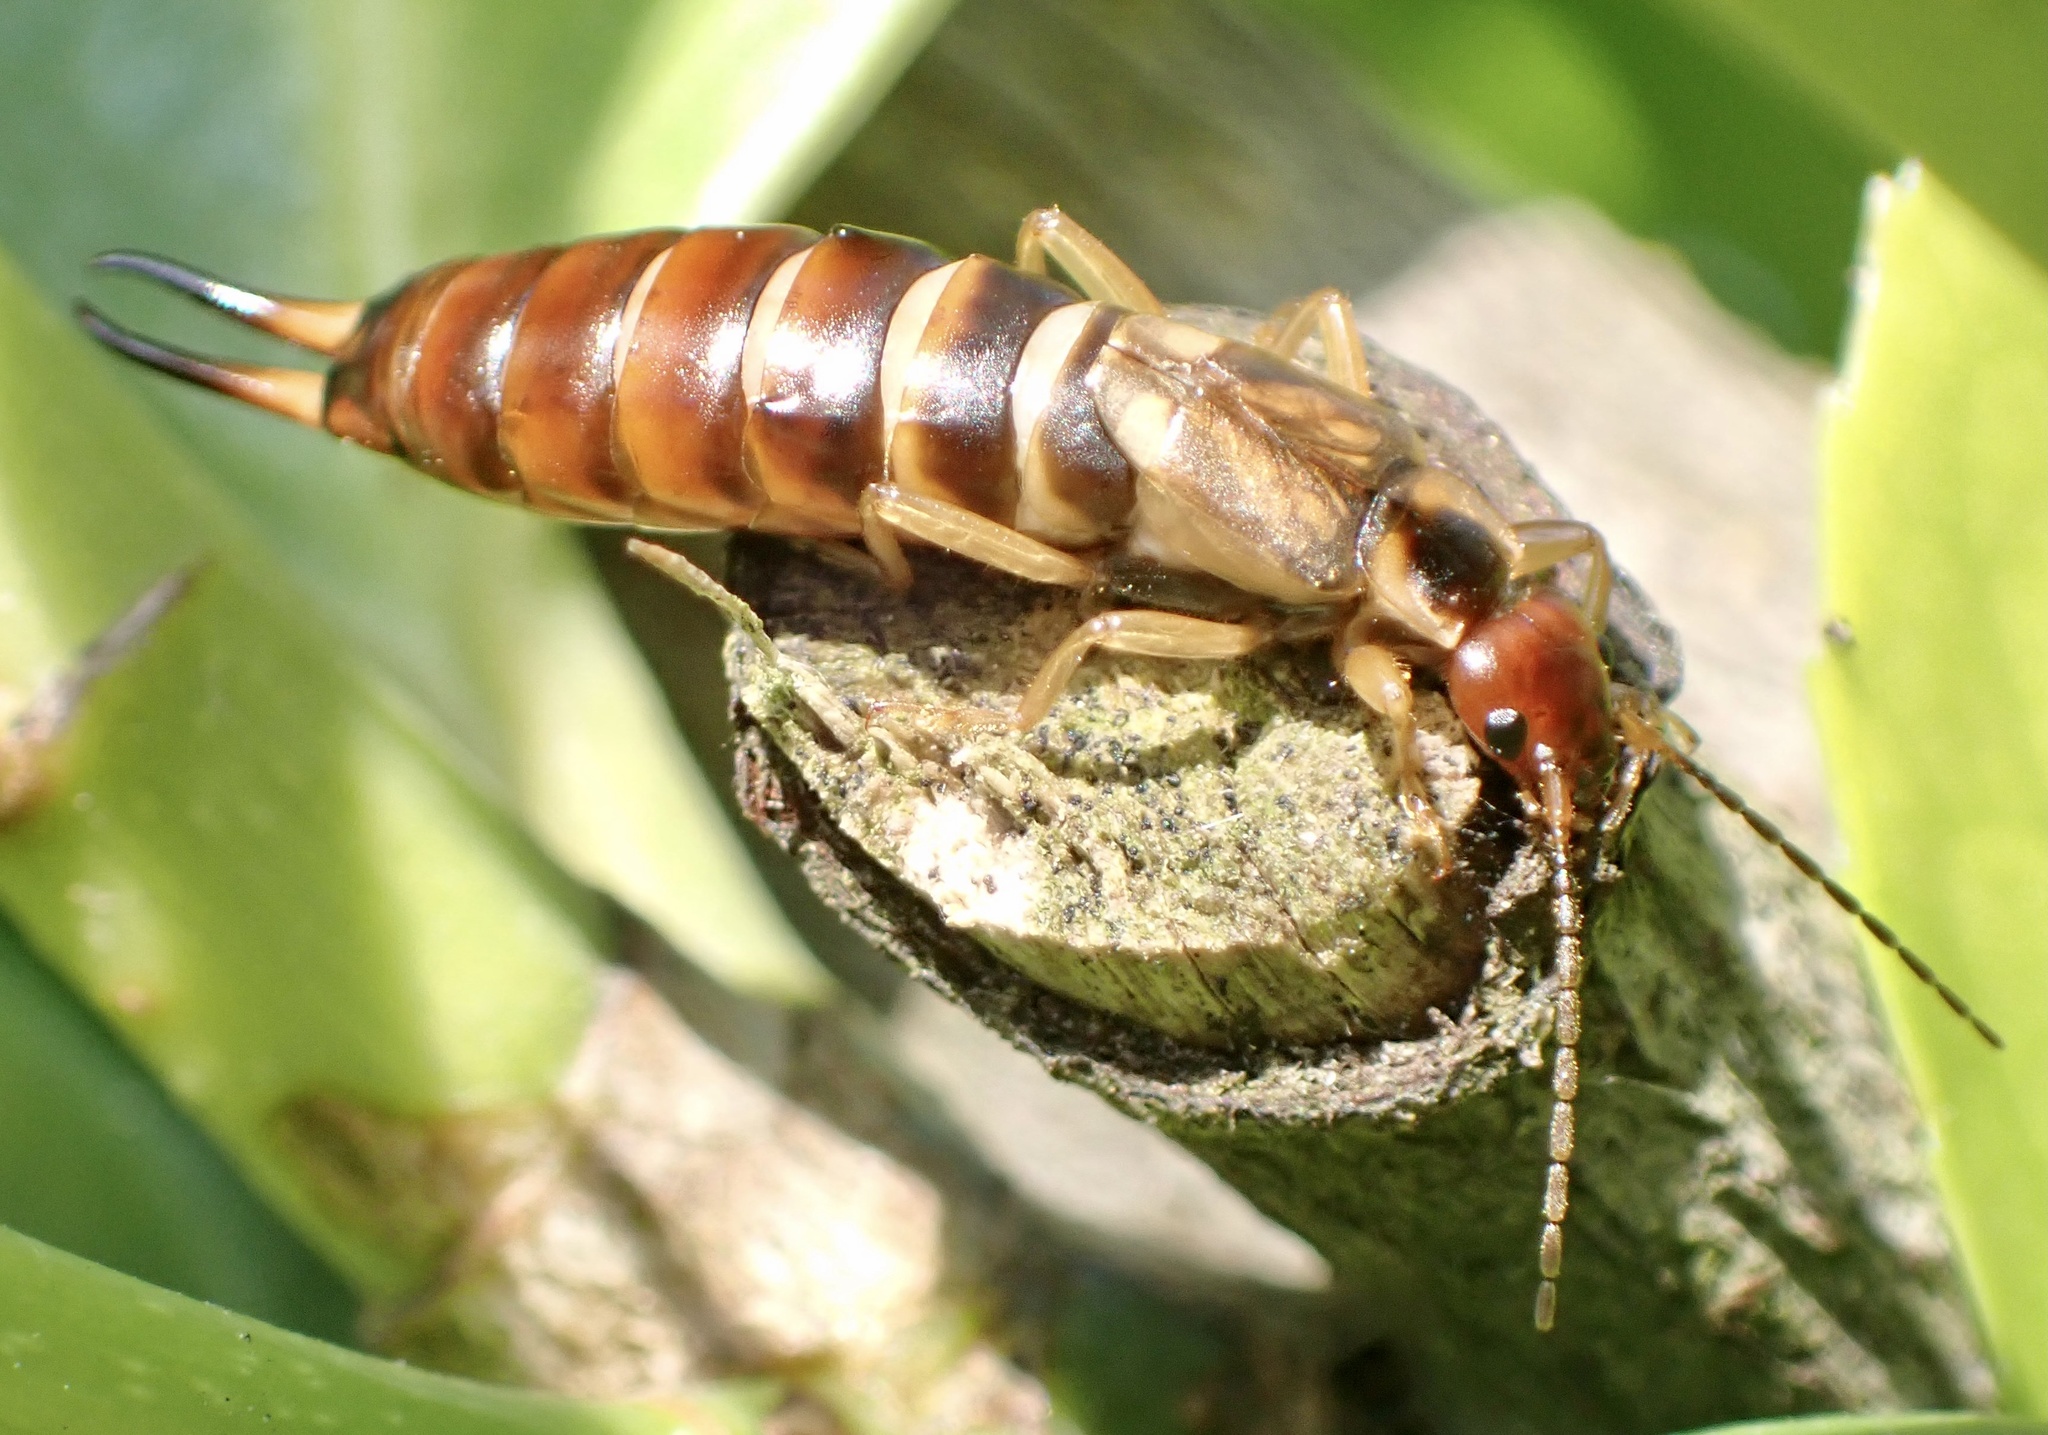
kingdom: Animalia
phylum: Arthropoda
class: Insecta
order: Dermaptera
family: Forficulidae
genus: Forficula
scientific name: Forficula
